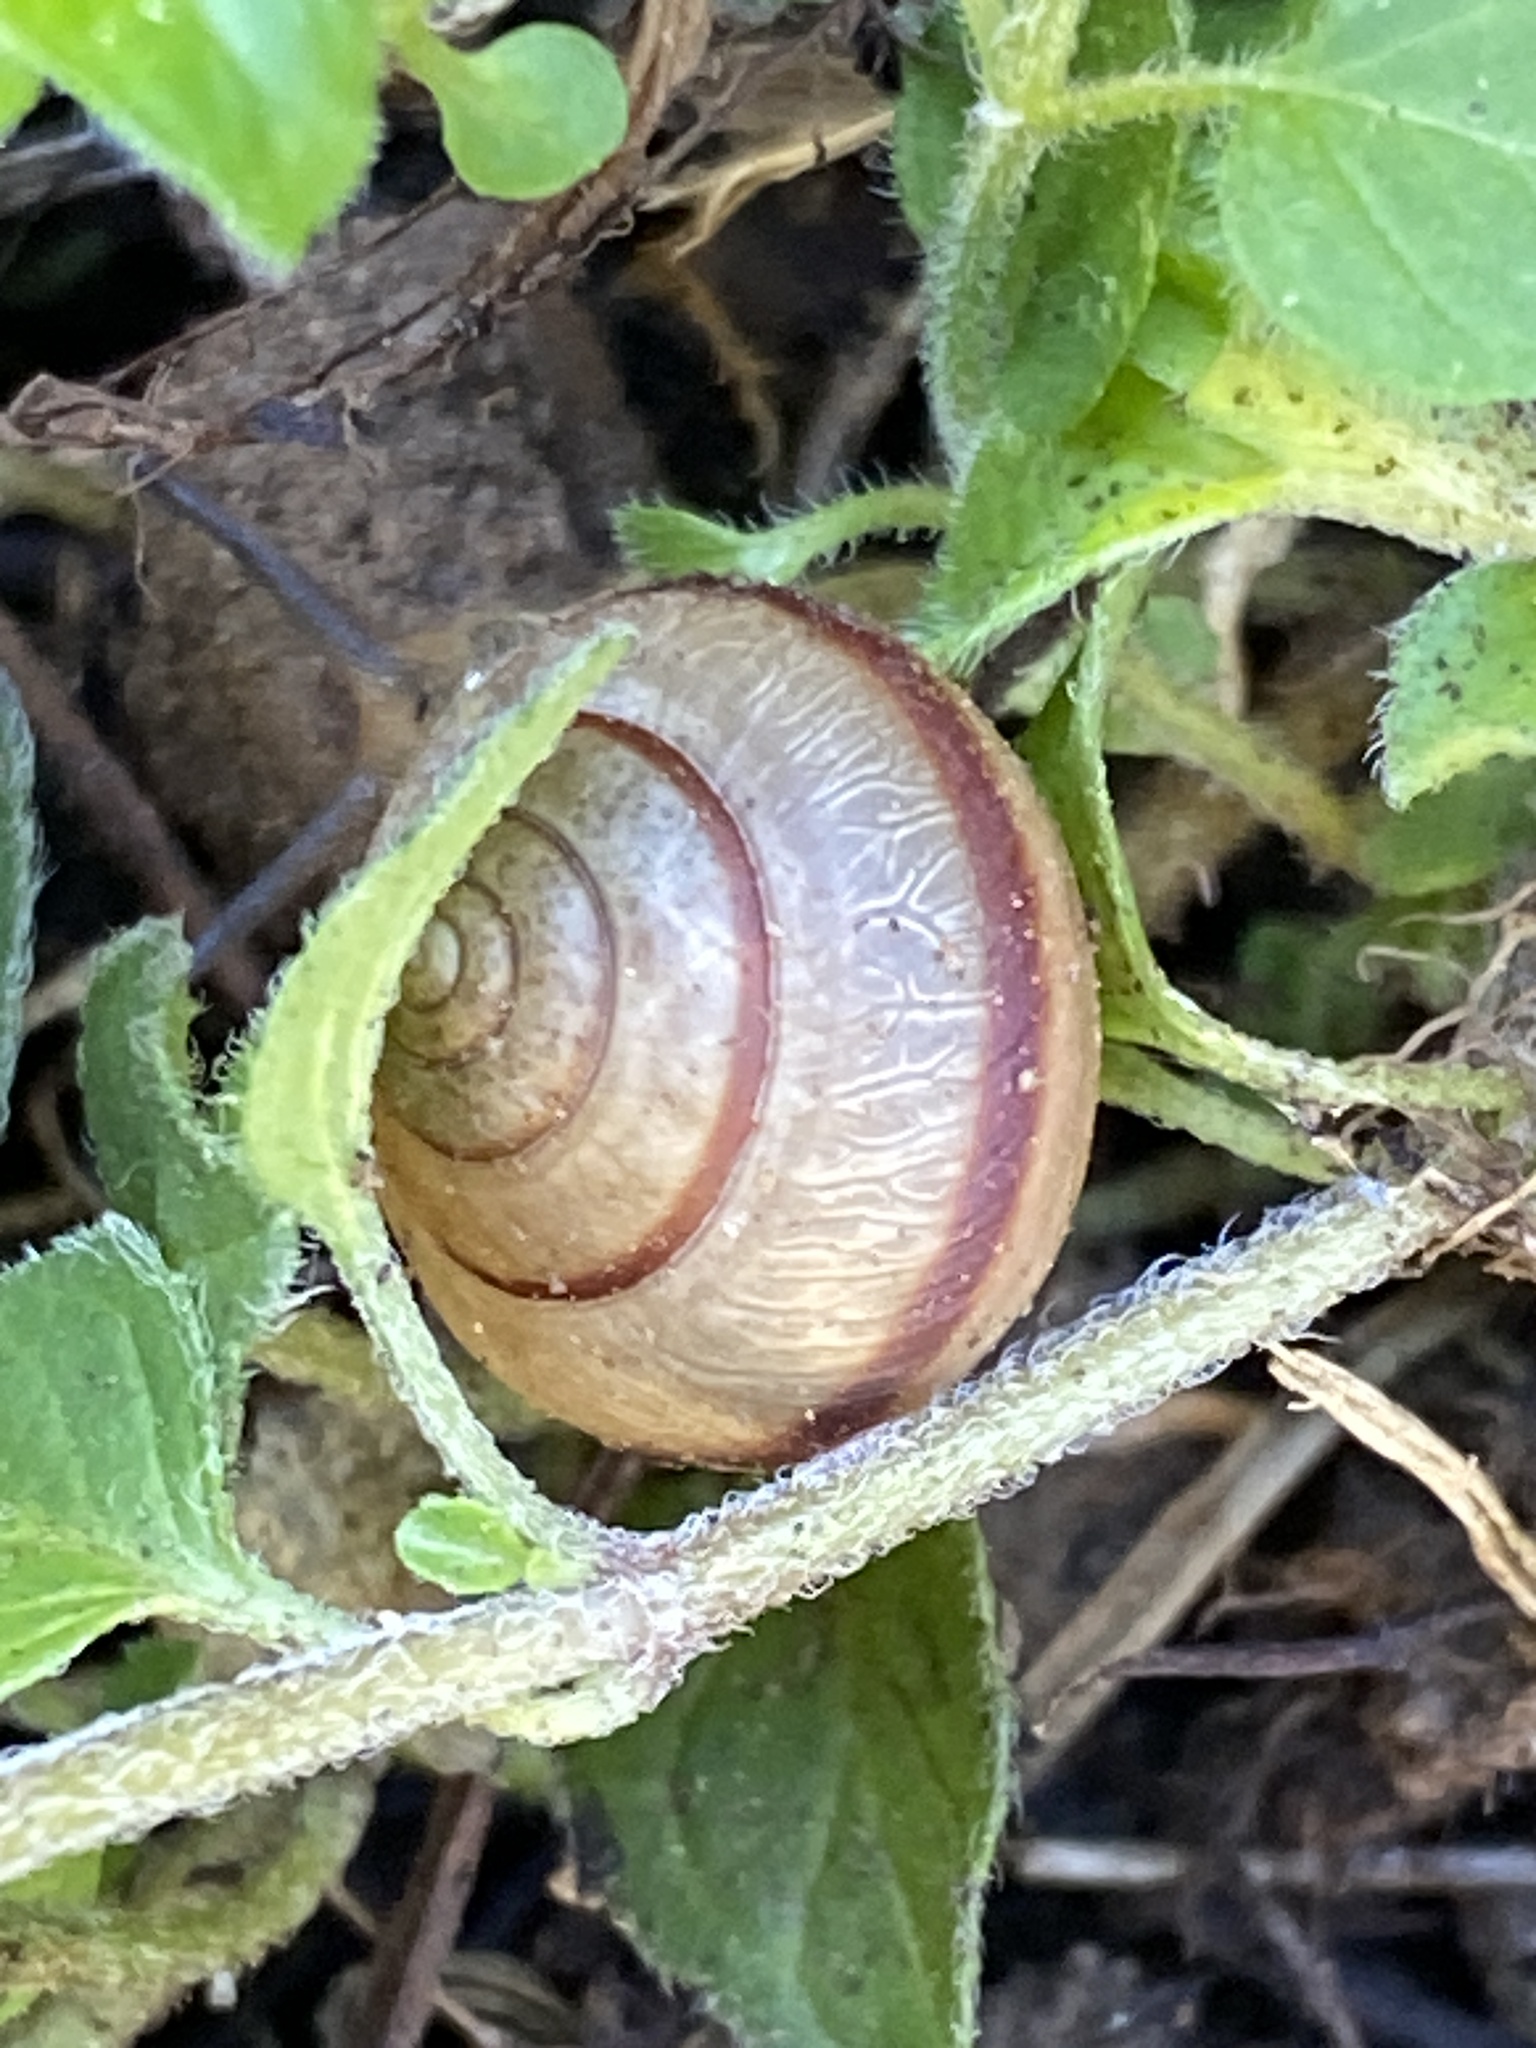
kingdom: Animalia
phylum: Mollusca
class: Gastropoda
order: Stylommatophora
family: Camaenidae
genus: Bradybaena
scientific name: Bradybaena similaris
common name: Asian trampsnail
